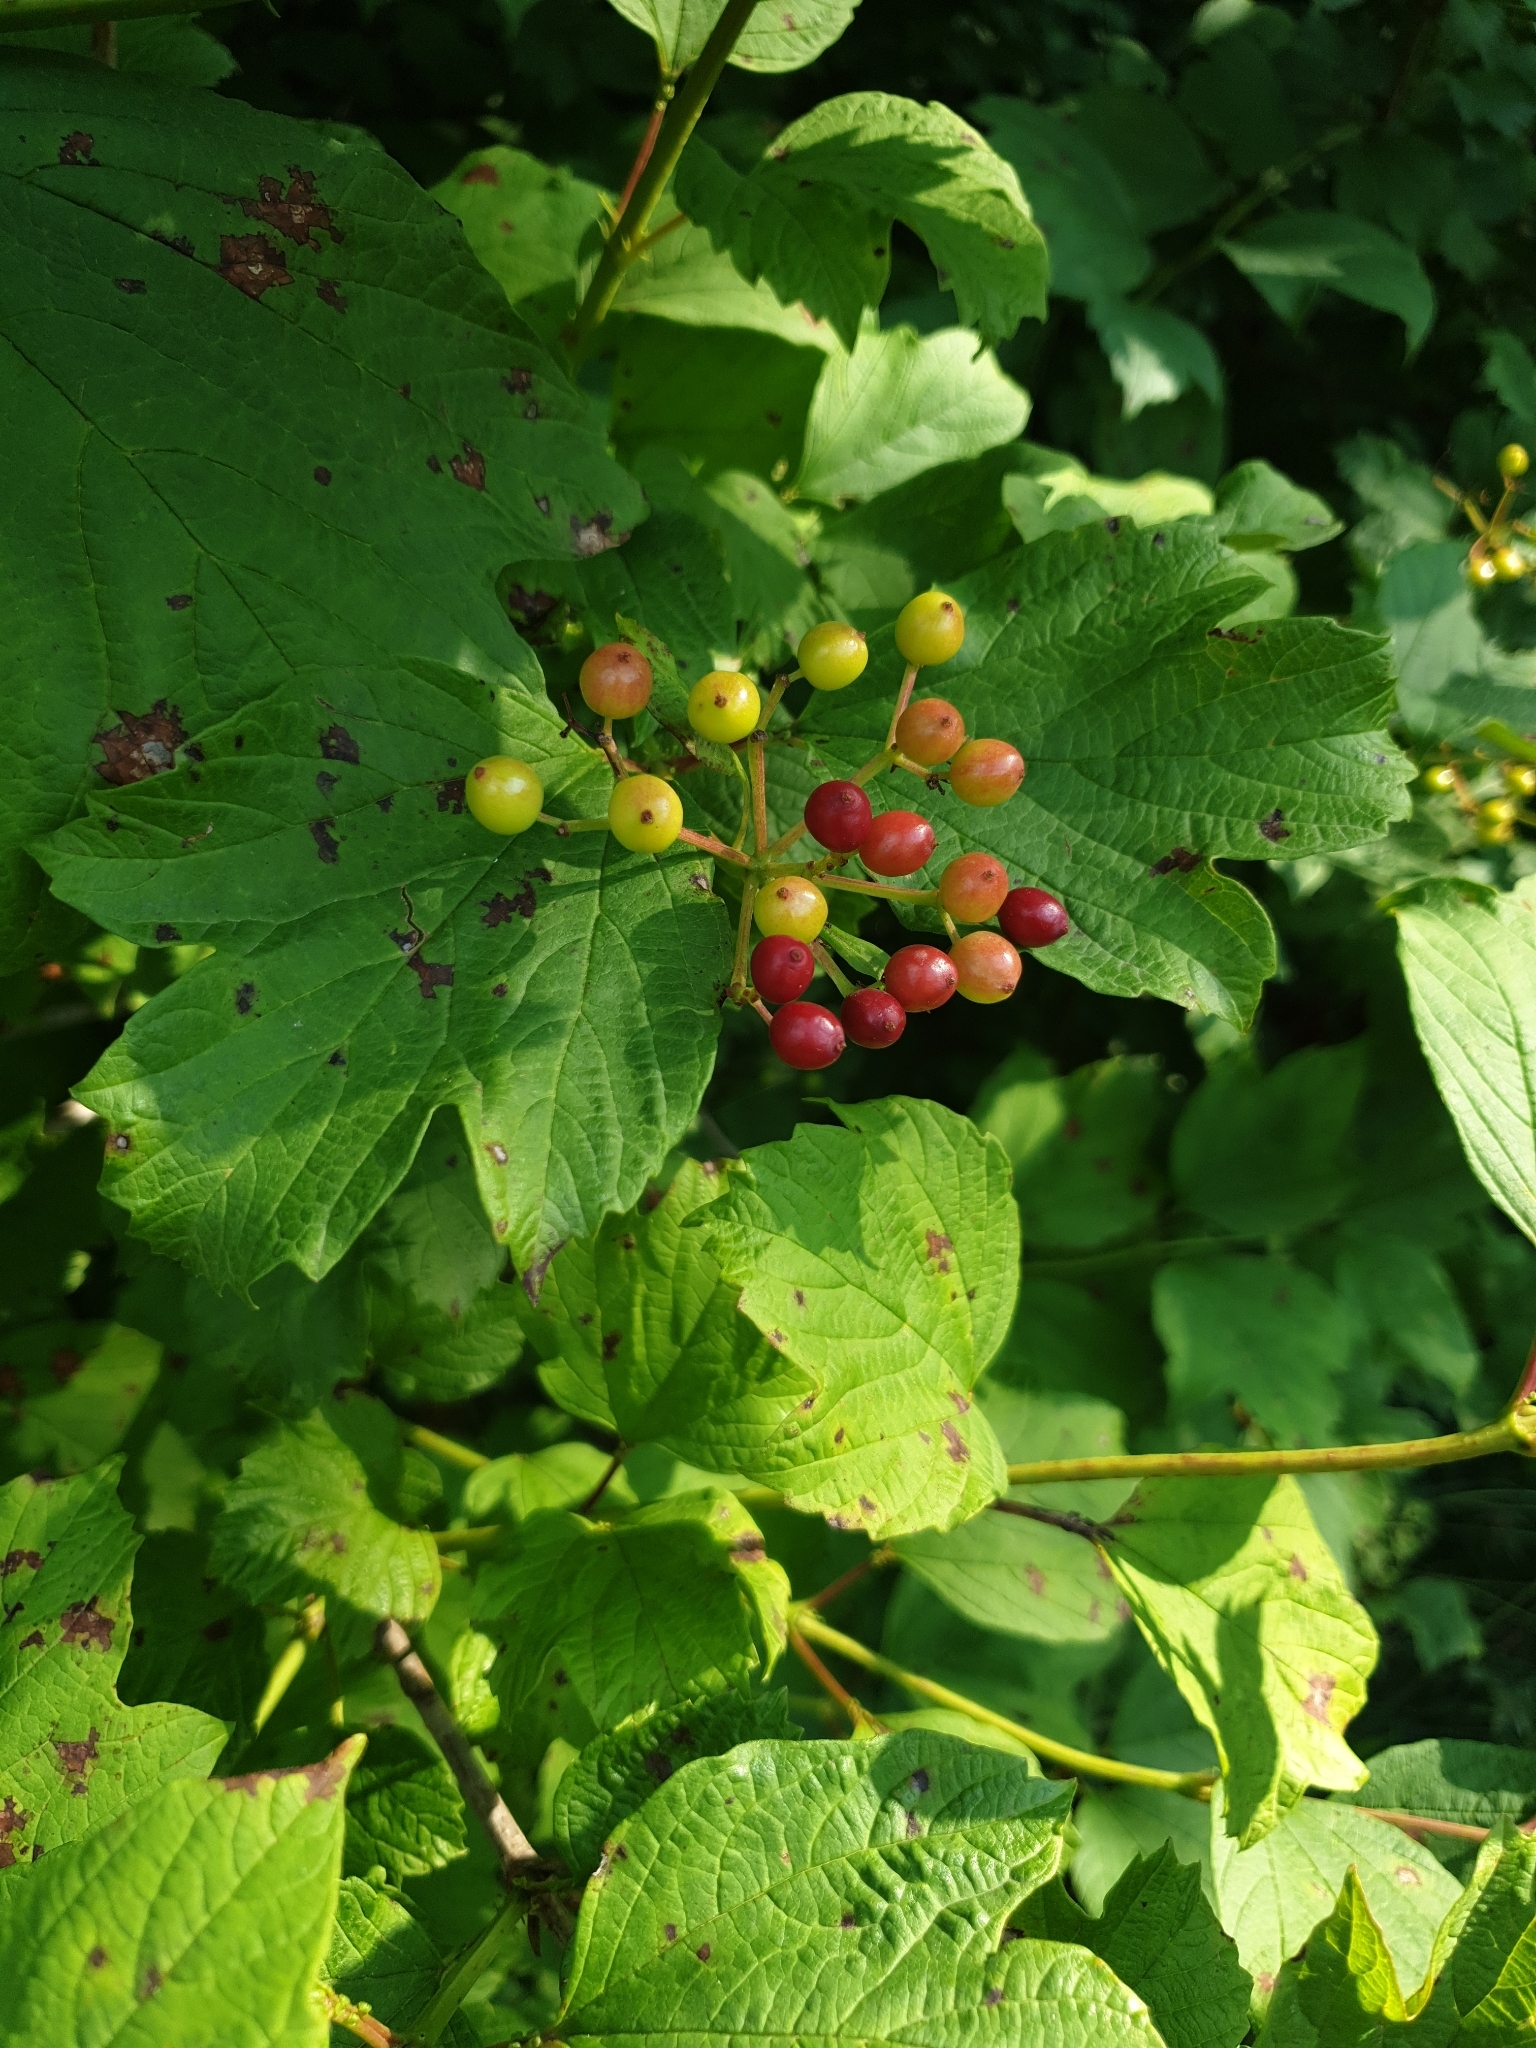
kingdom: Plantae
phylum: Tracheophyta
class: Magnoliopsida
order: Dipsacales
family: Viburnaceae
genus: Viburnum
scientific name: Viburnum opulus
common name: Guelder-rose
